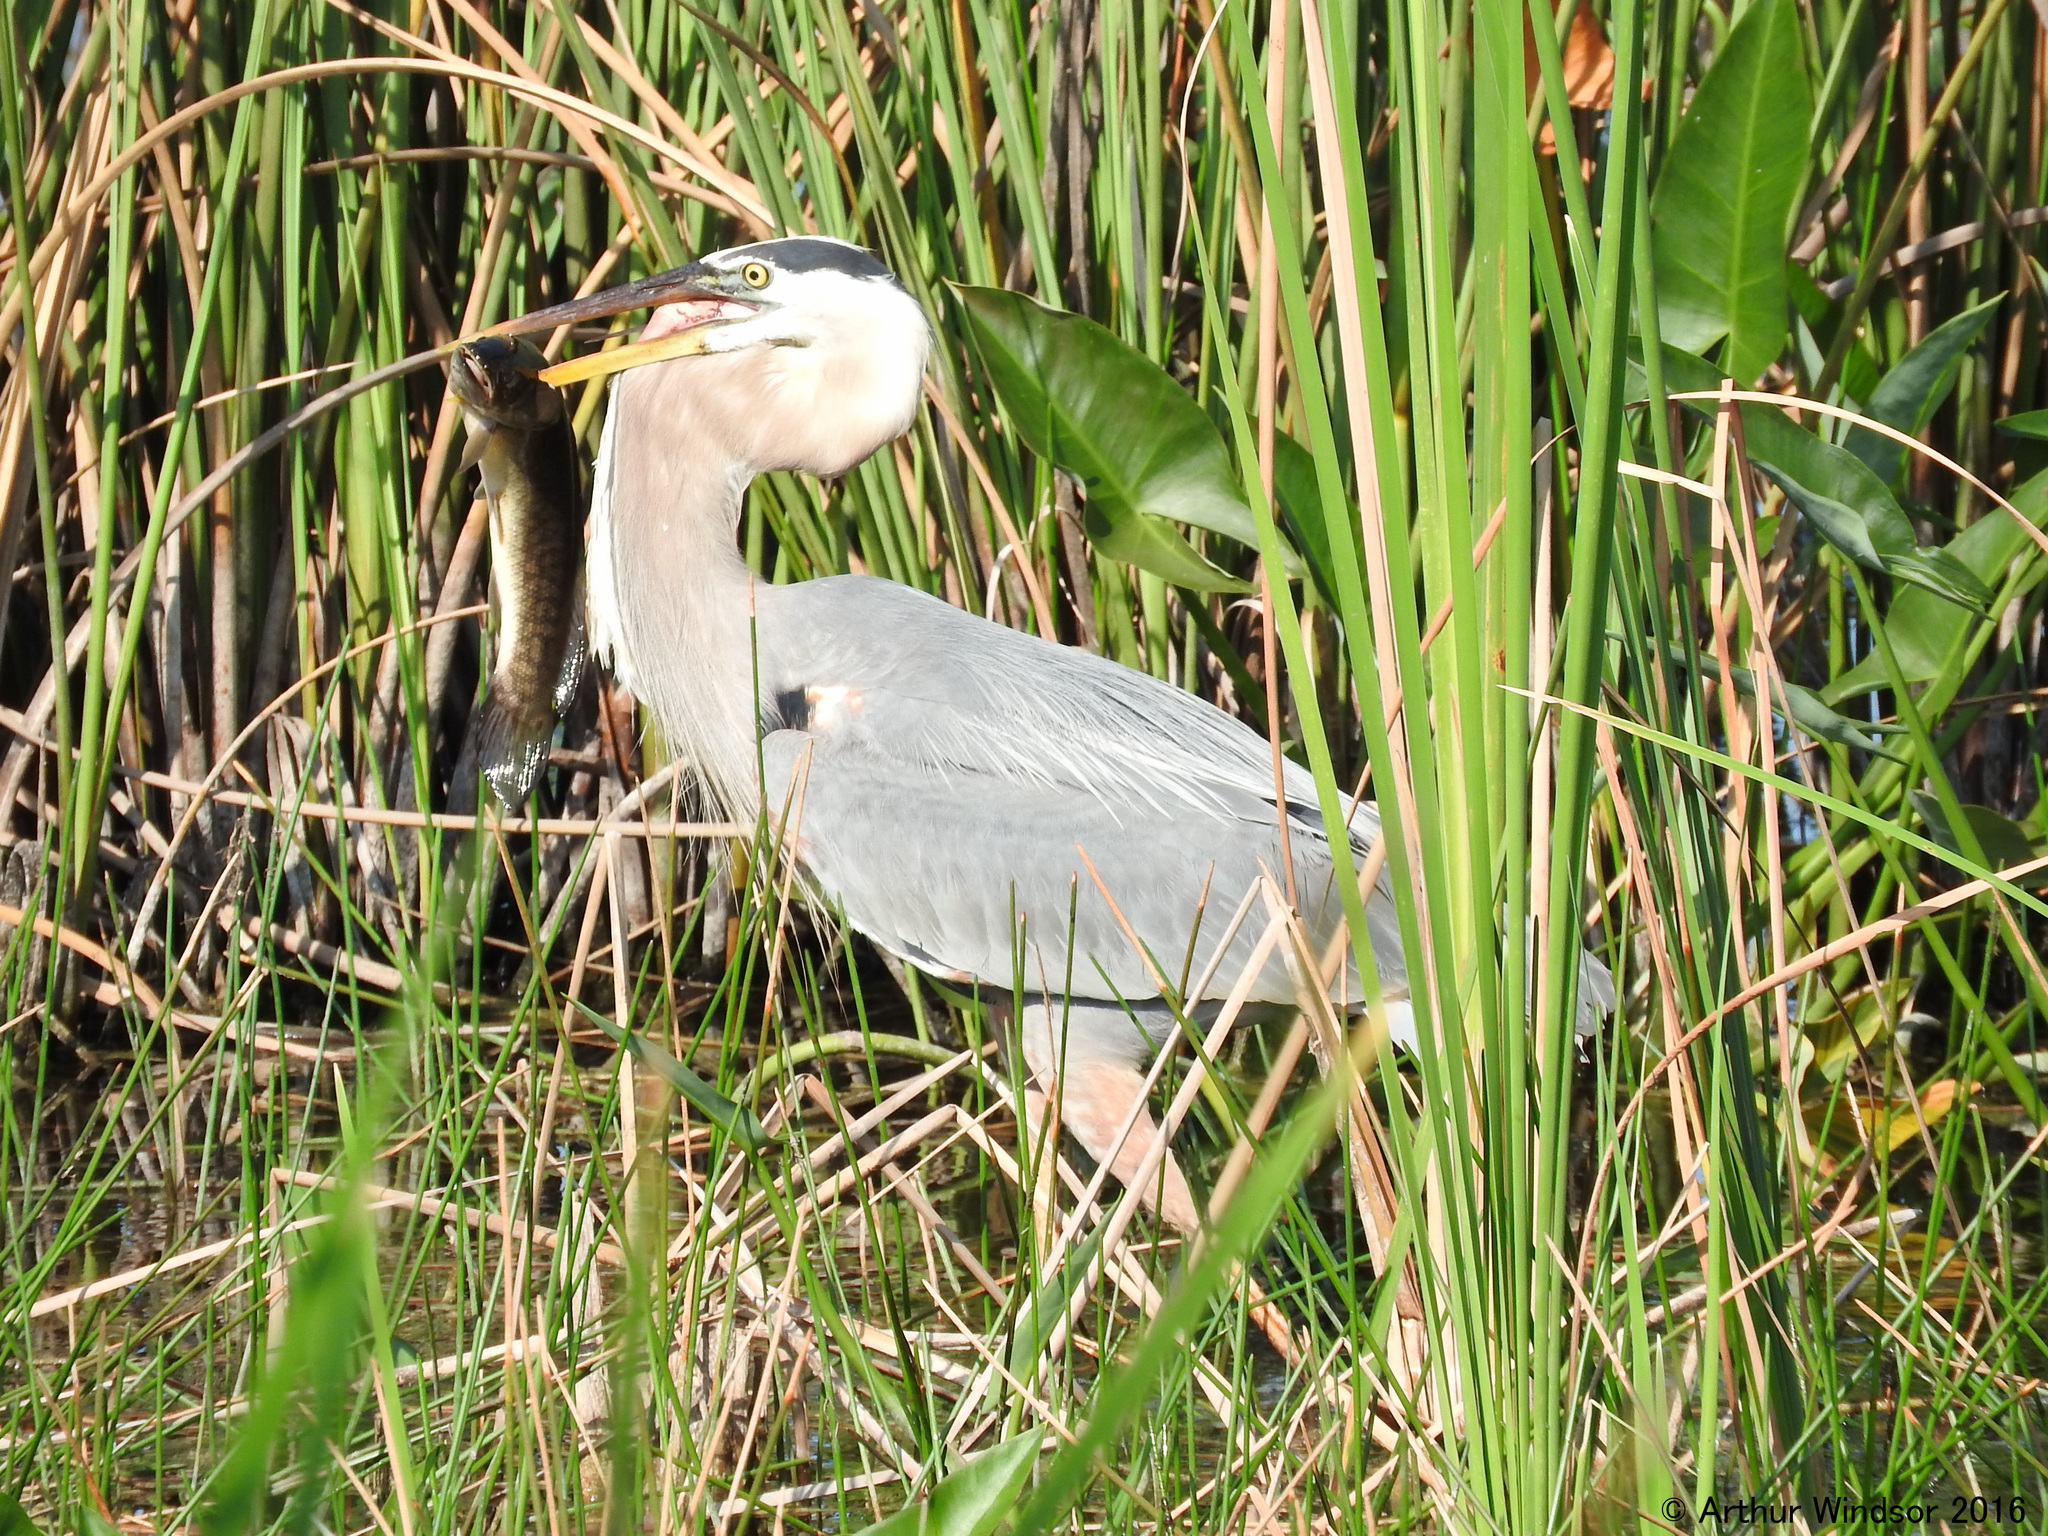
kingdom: Animalia
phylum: Chordata
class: Aves
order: Pelecaniformes
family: Ardeidae
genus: Ardea
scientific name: Ardea herodias
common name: Great blue heron
